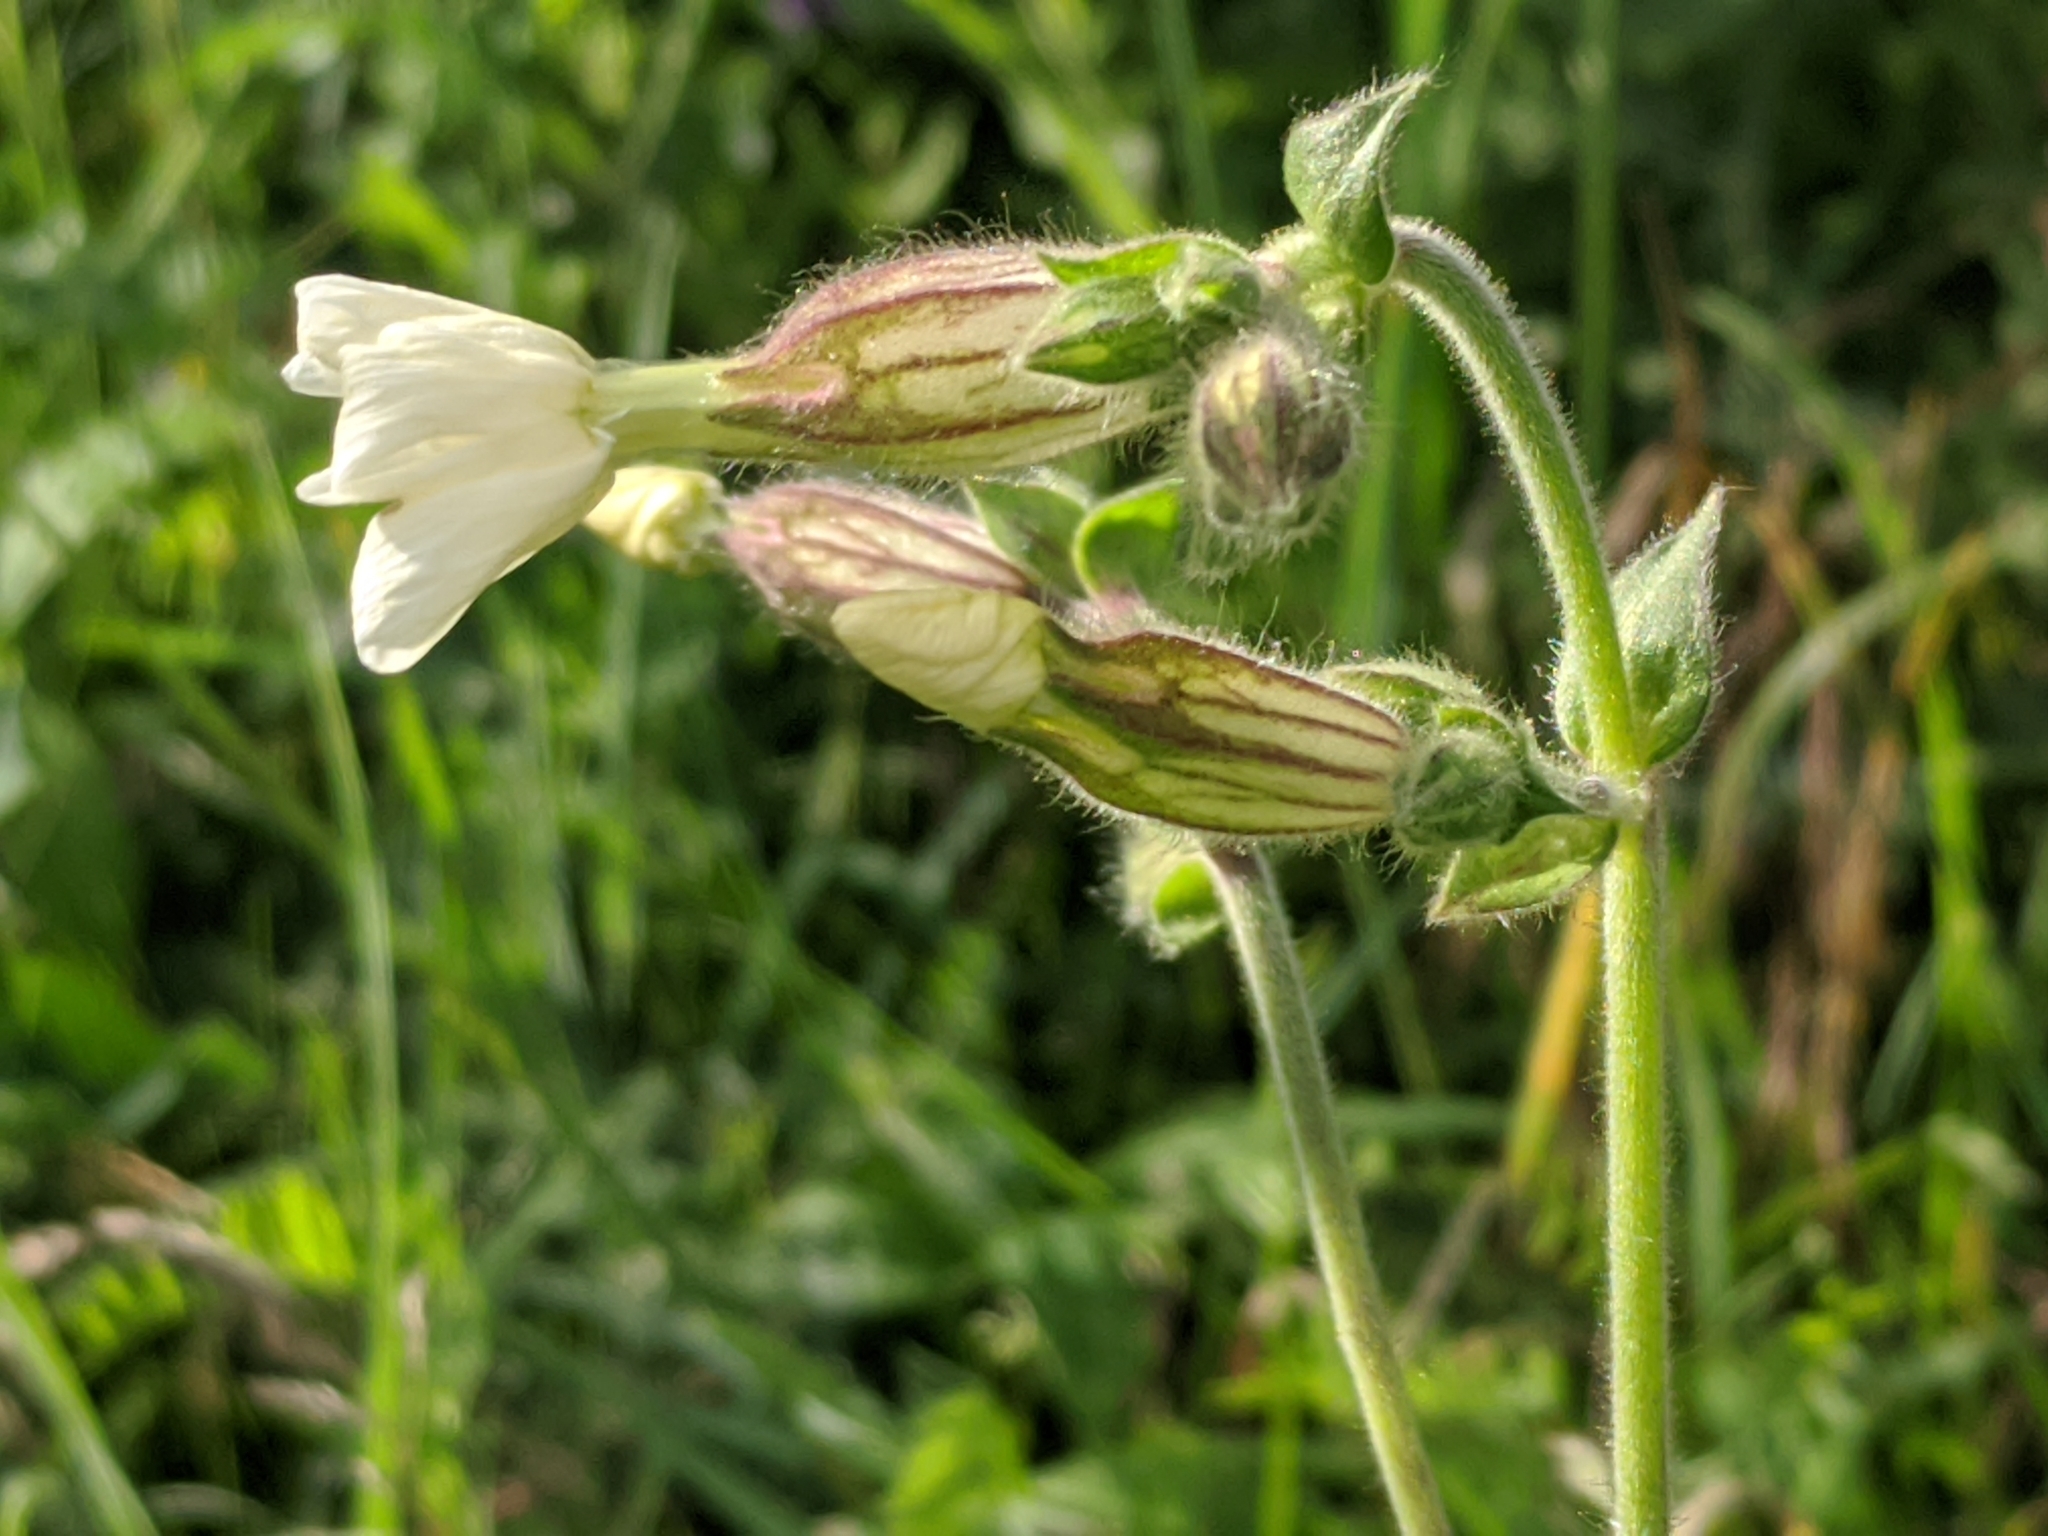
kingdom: Plantae
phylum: Tracheophyta
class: Magnoliopsida
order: Caryophyllales
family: Caryophyllaceae
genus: Silene
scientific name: Silene latifolia
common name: White campion
